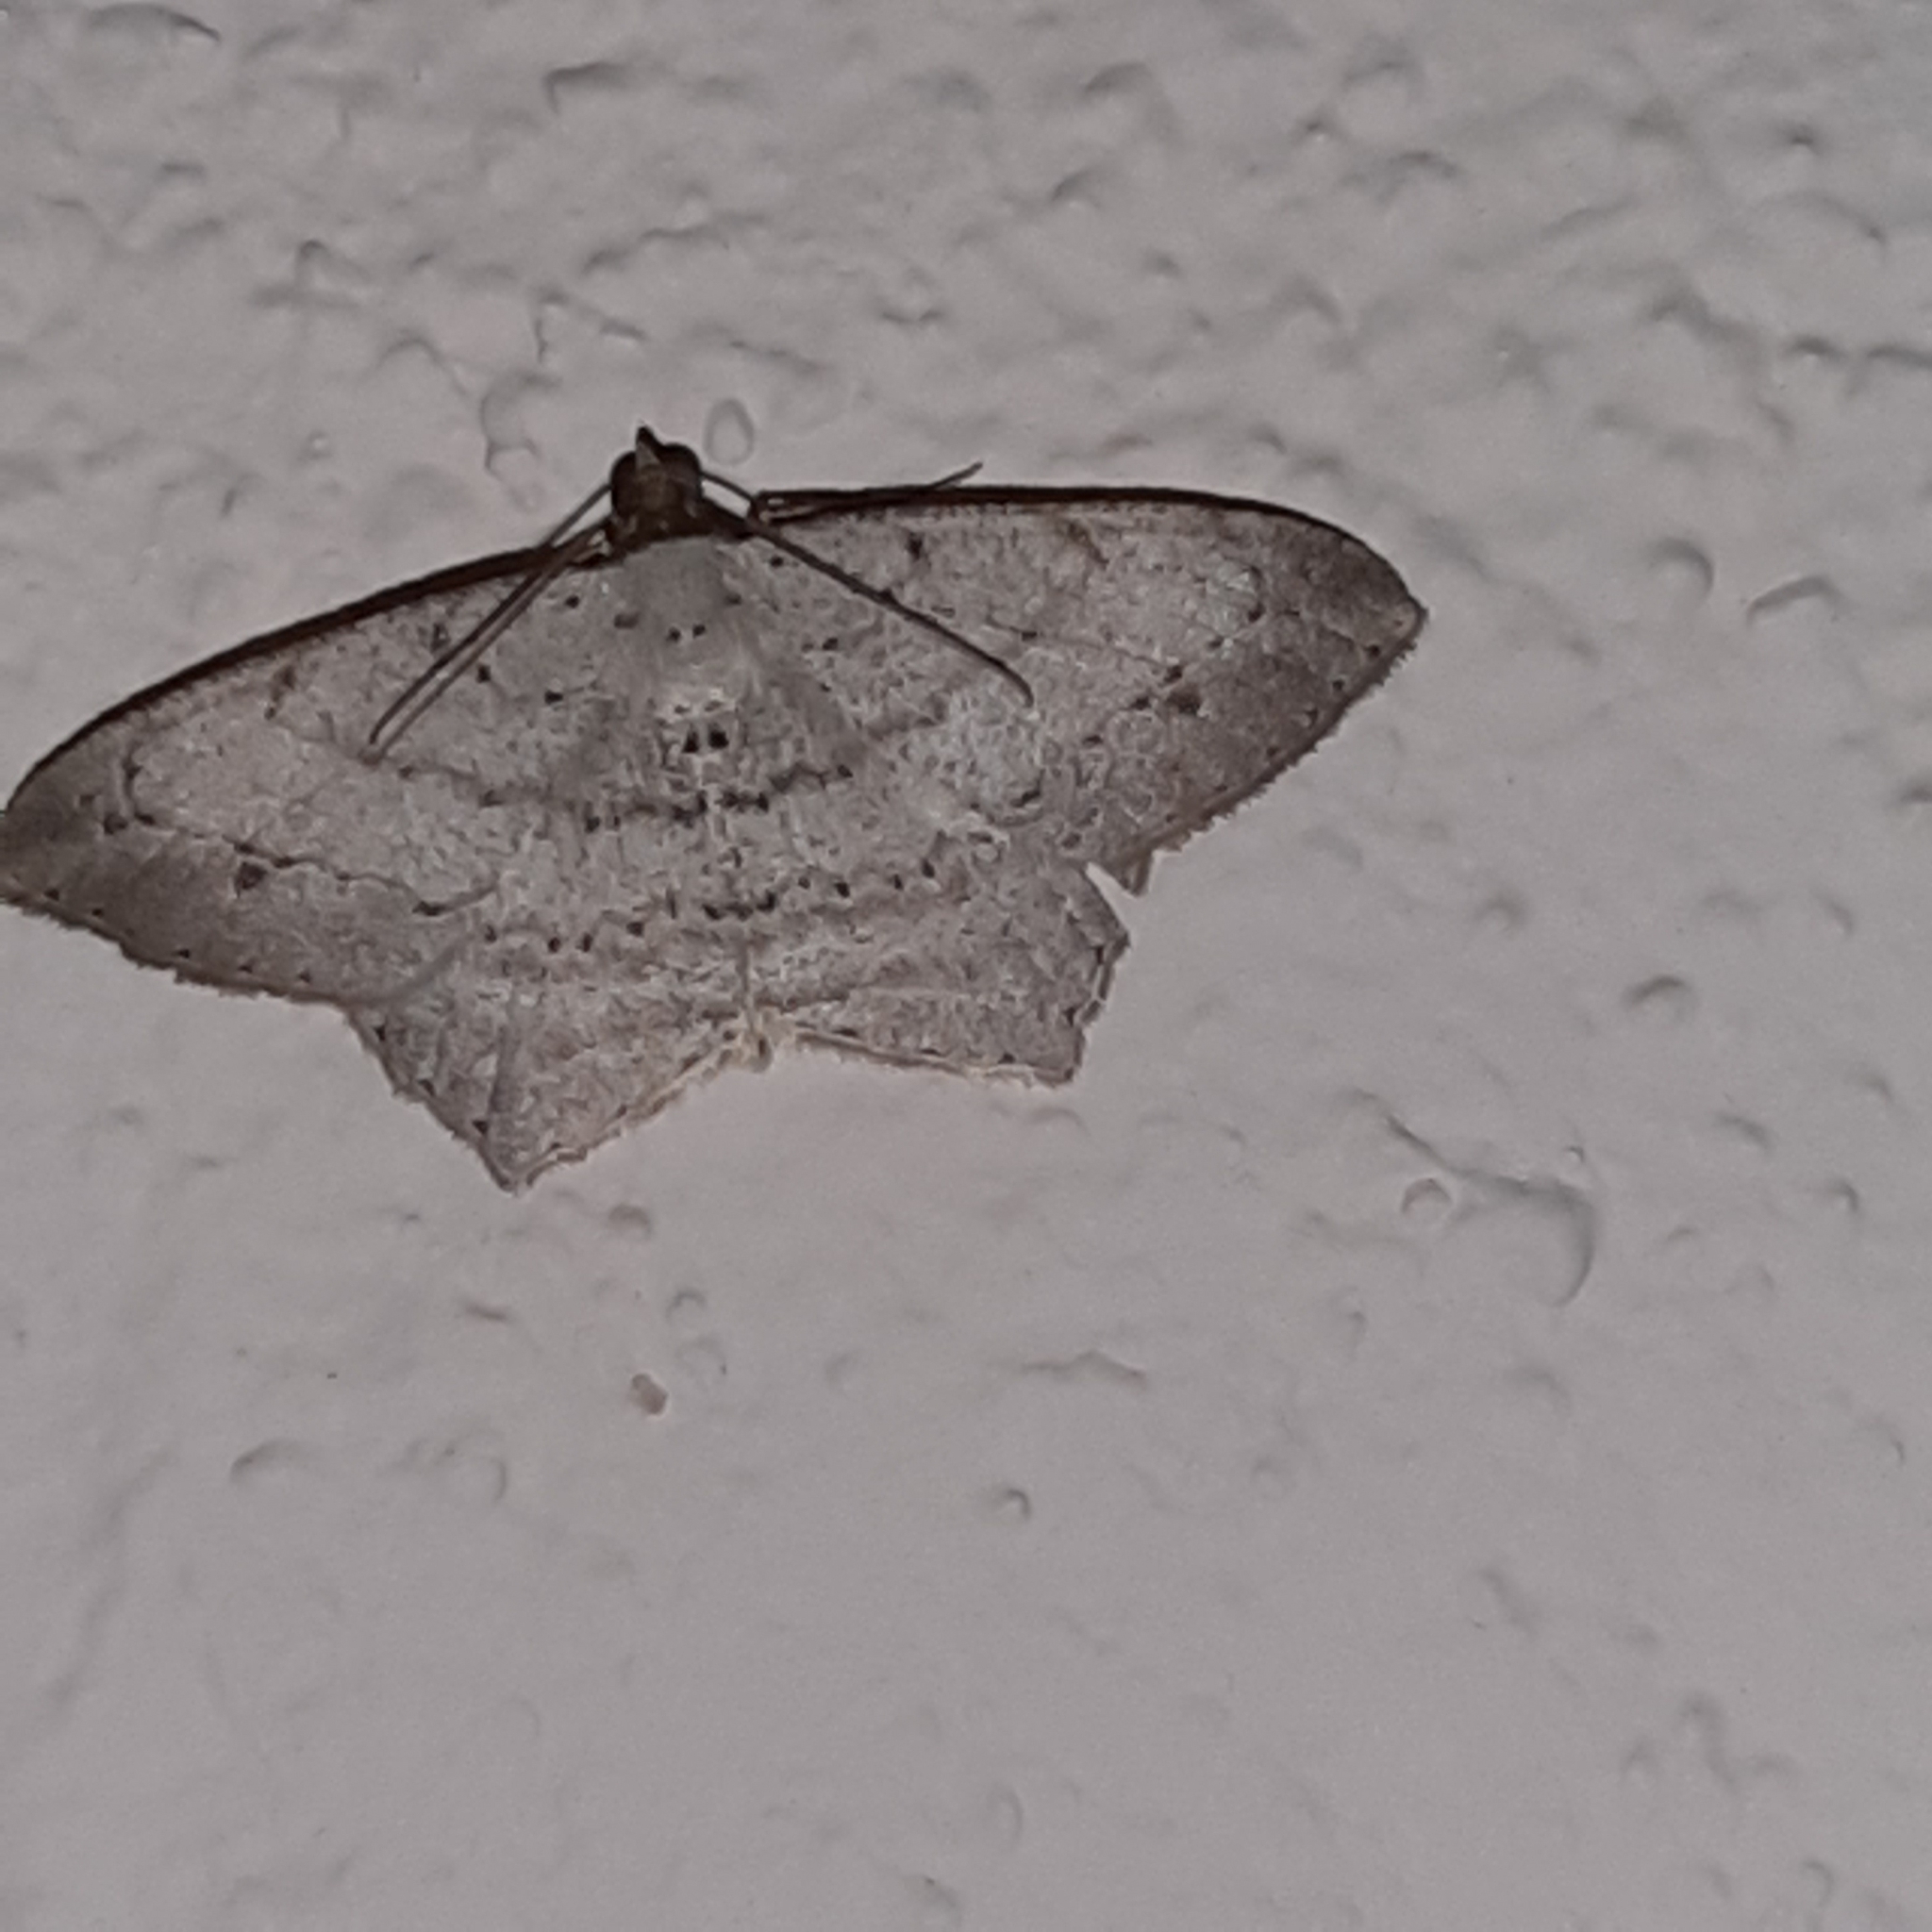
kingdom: Animalia
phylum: Arthropoda
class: Insecta
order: Lepidoptera
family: Geometridae
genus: Macaria
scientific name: Macaria
